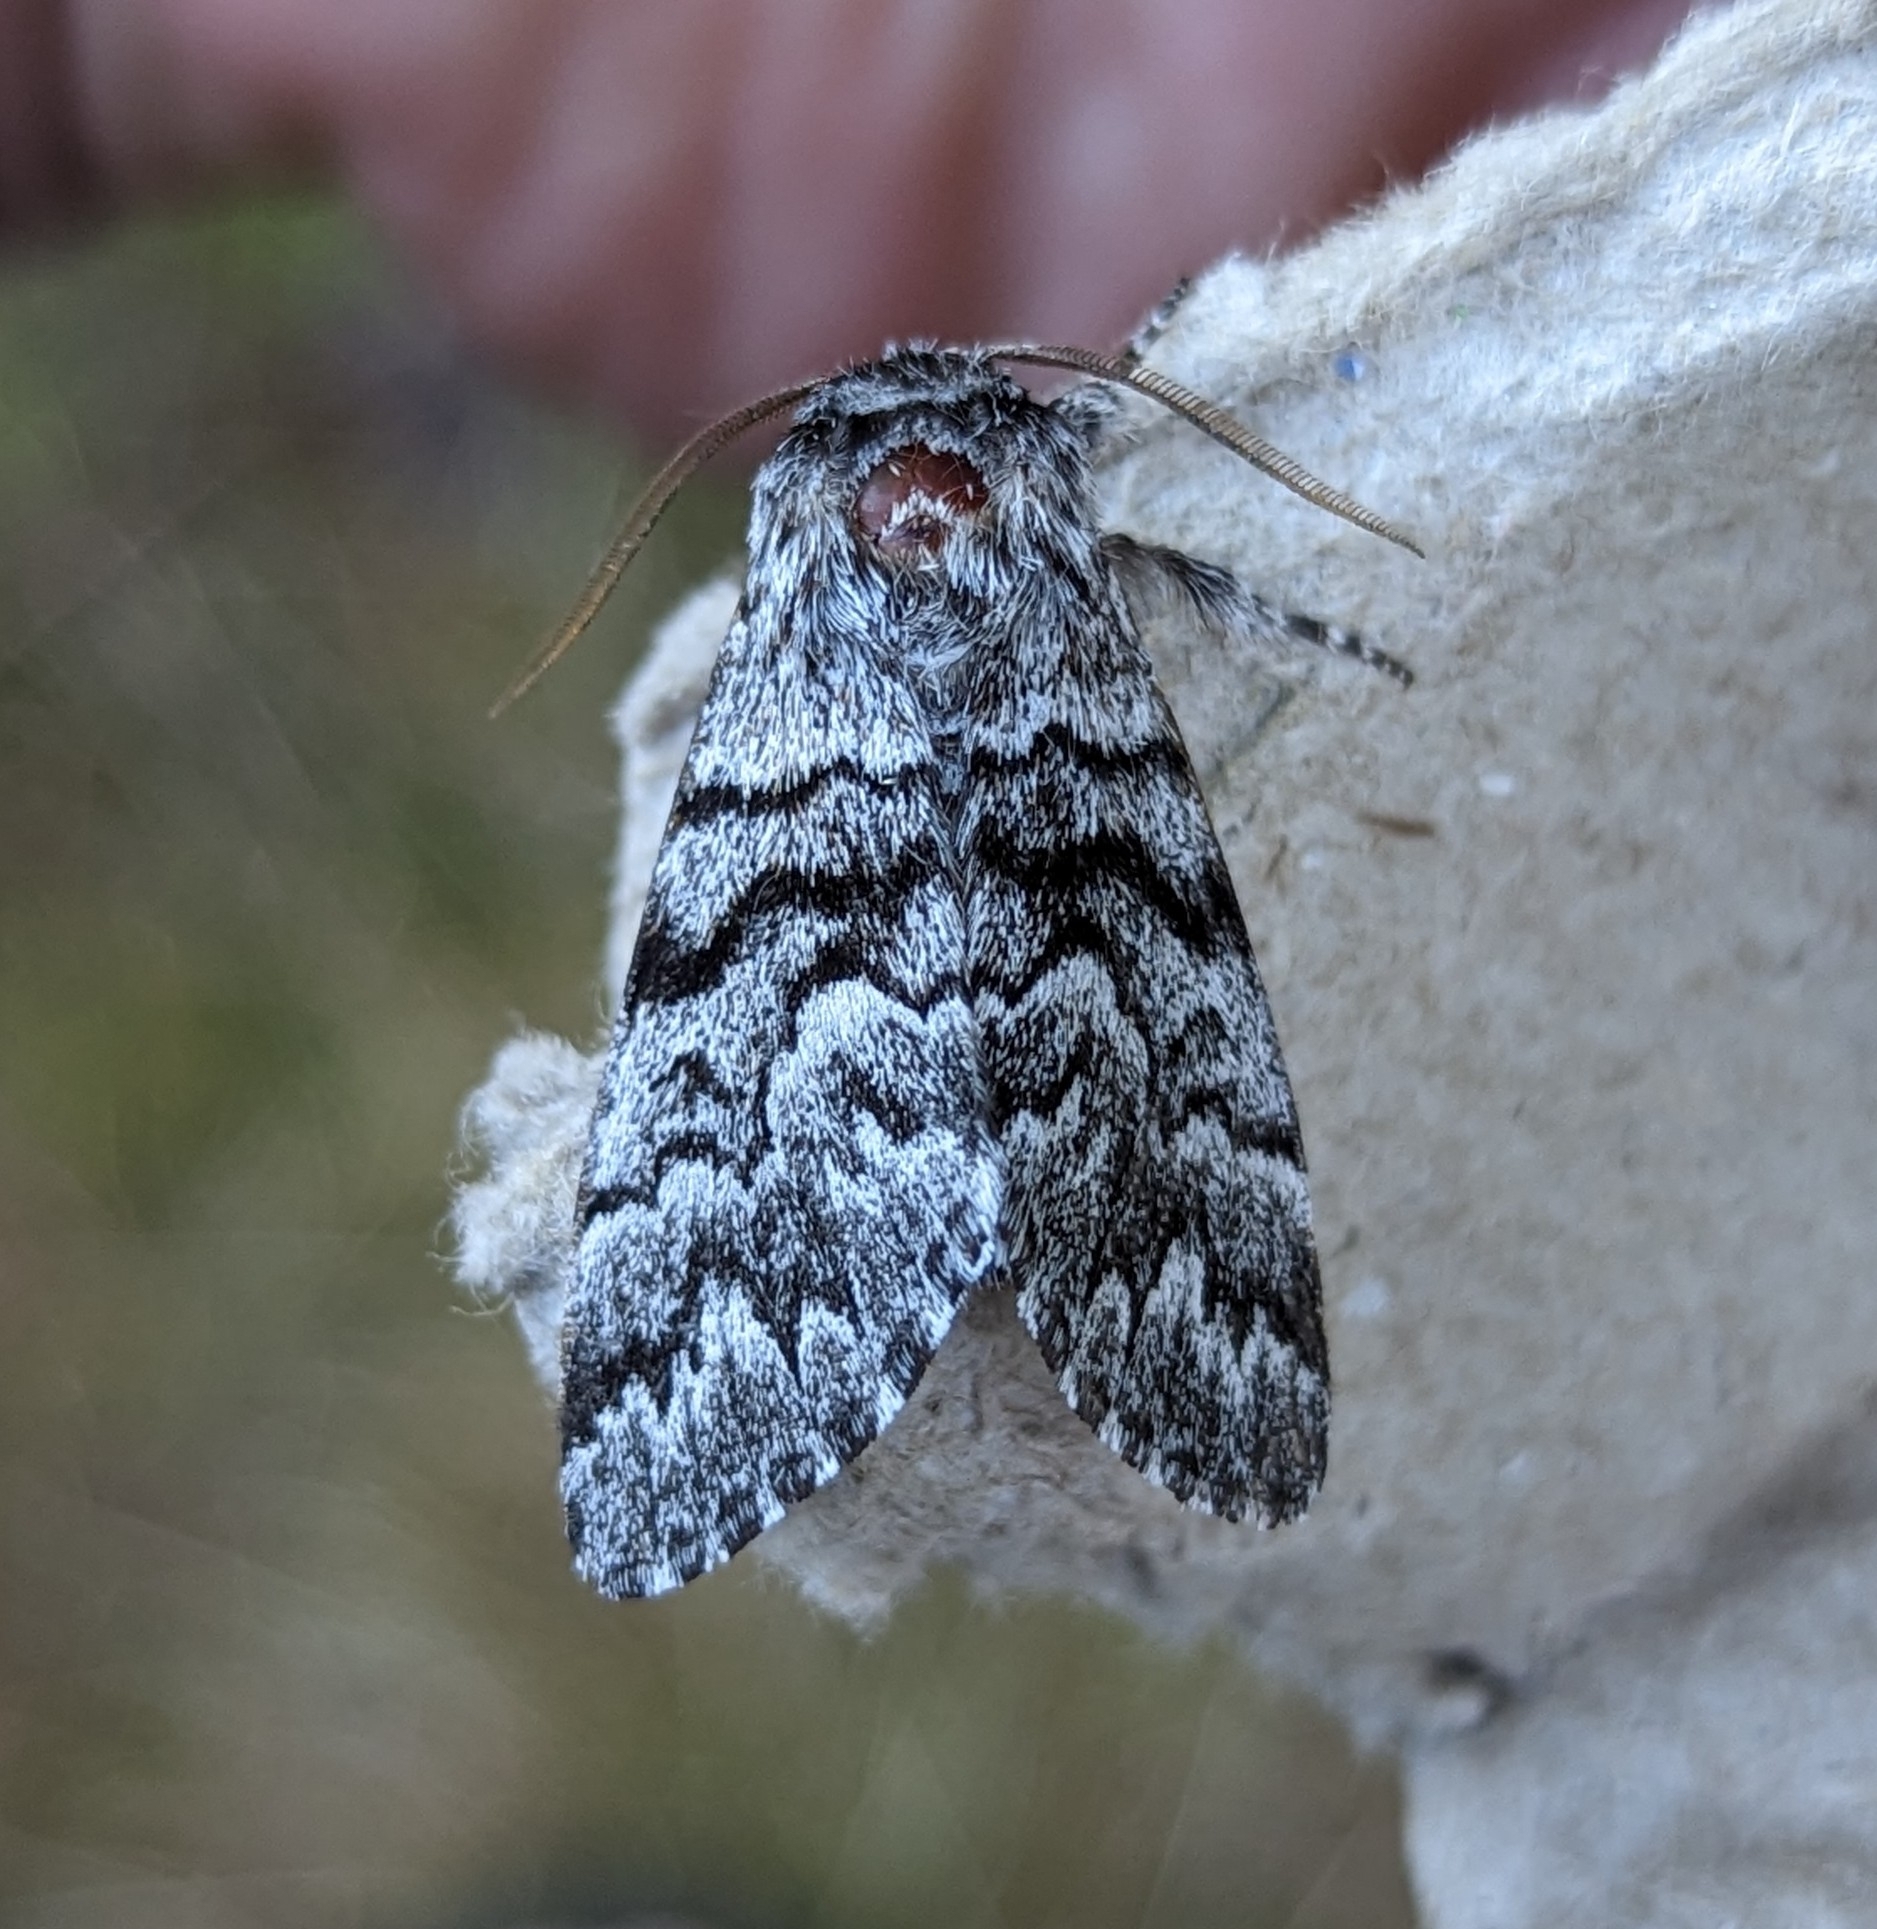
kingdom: Animalia
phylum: Arthropoda
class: Insecta
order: Lepidoptera
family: Noctuidae
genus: Panthea
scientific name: Panthea virginarius
